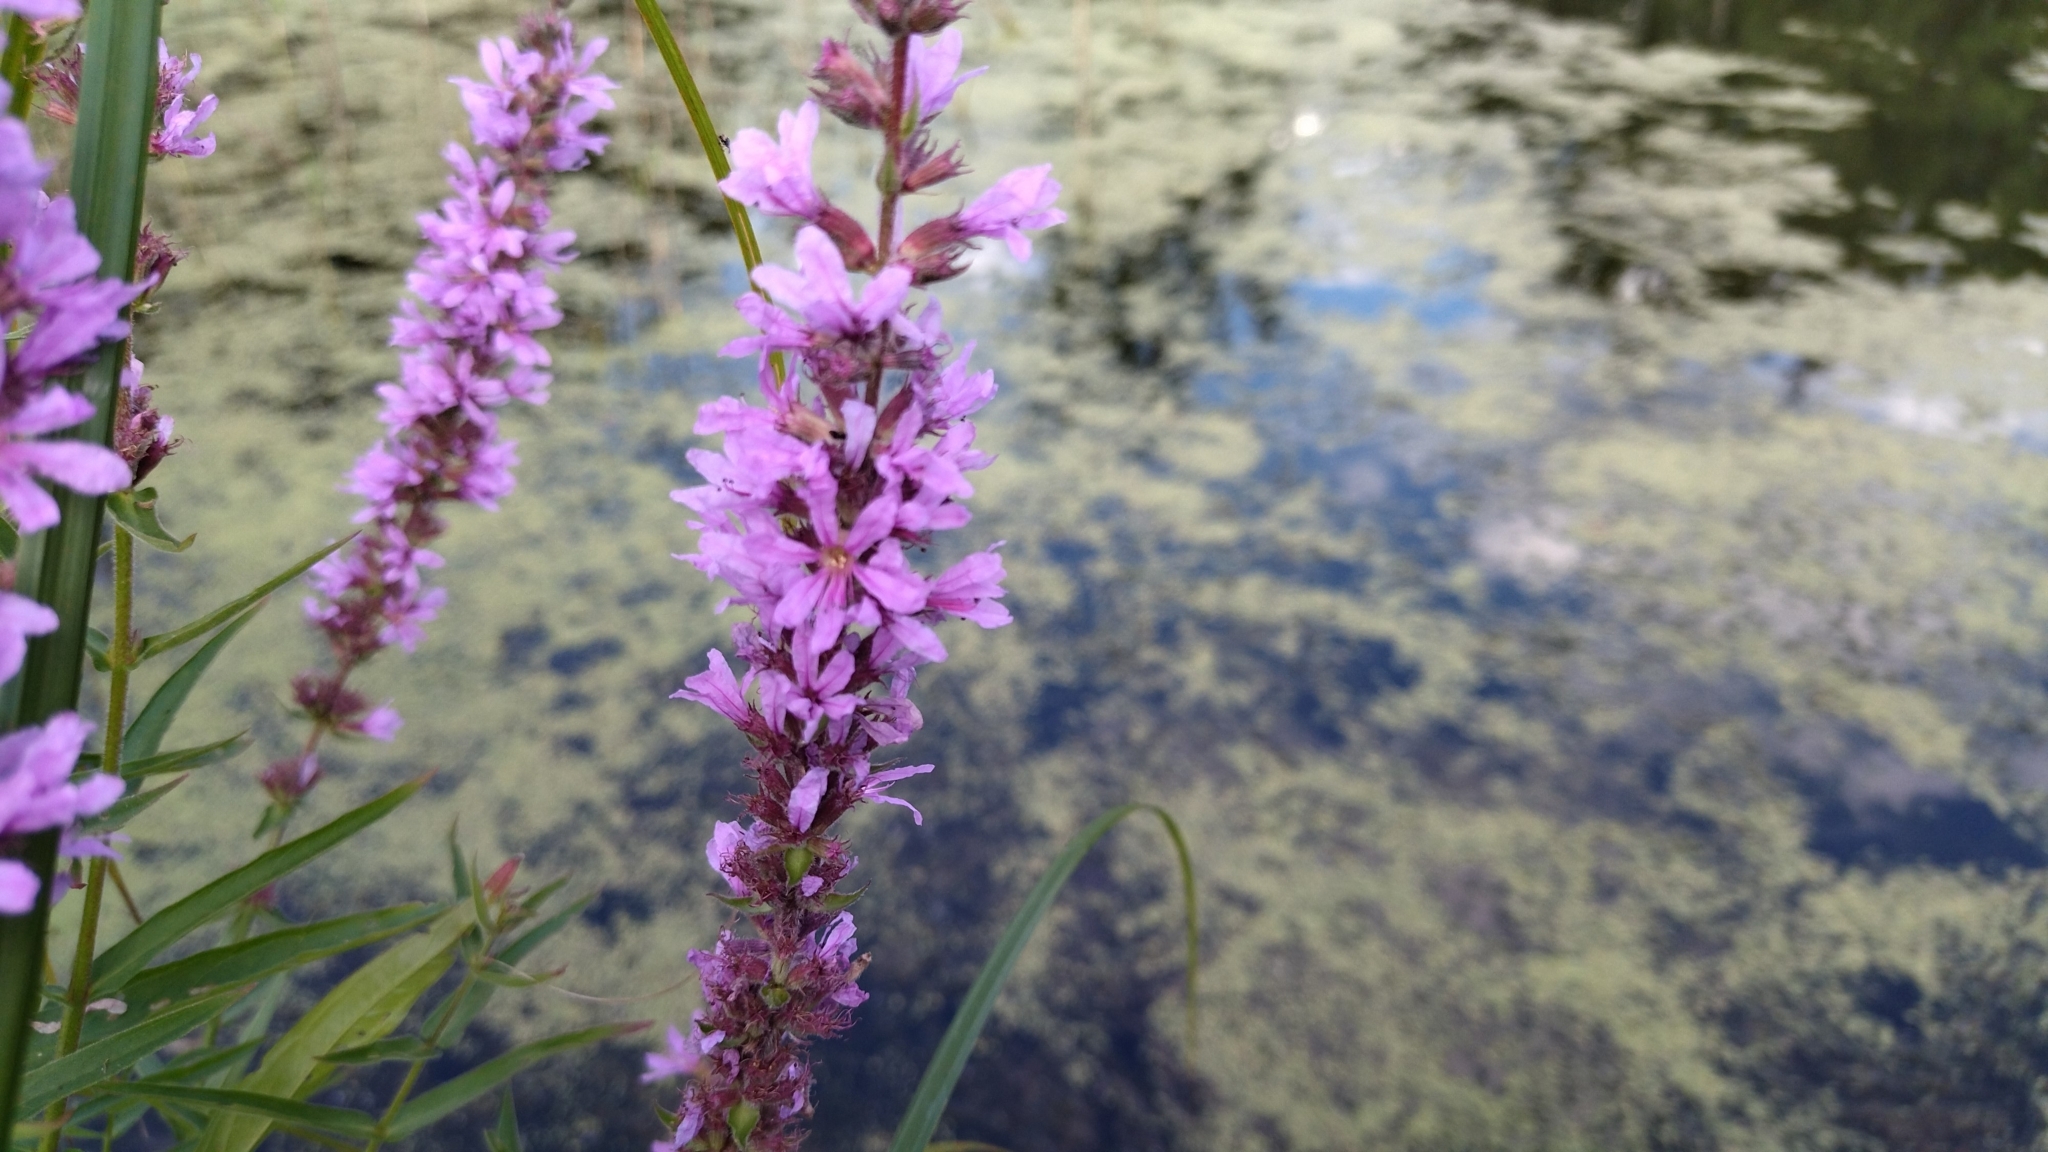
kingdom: Plantae
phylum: Tracheophyta
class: Magnoliopsida
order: Myrtales
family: Lythraceae
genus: Lythrum
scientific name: Lythrum salicaria
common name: Purple loosestrife
